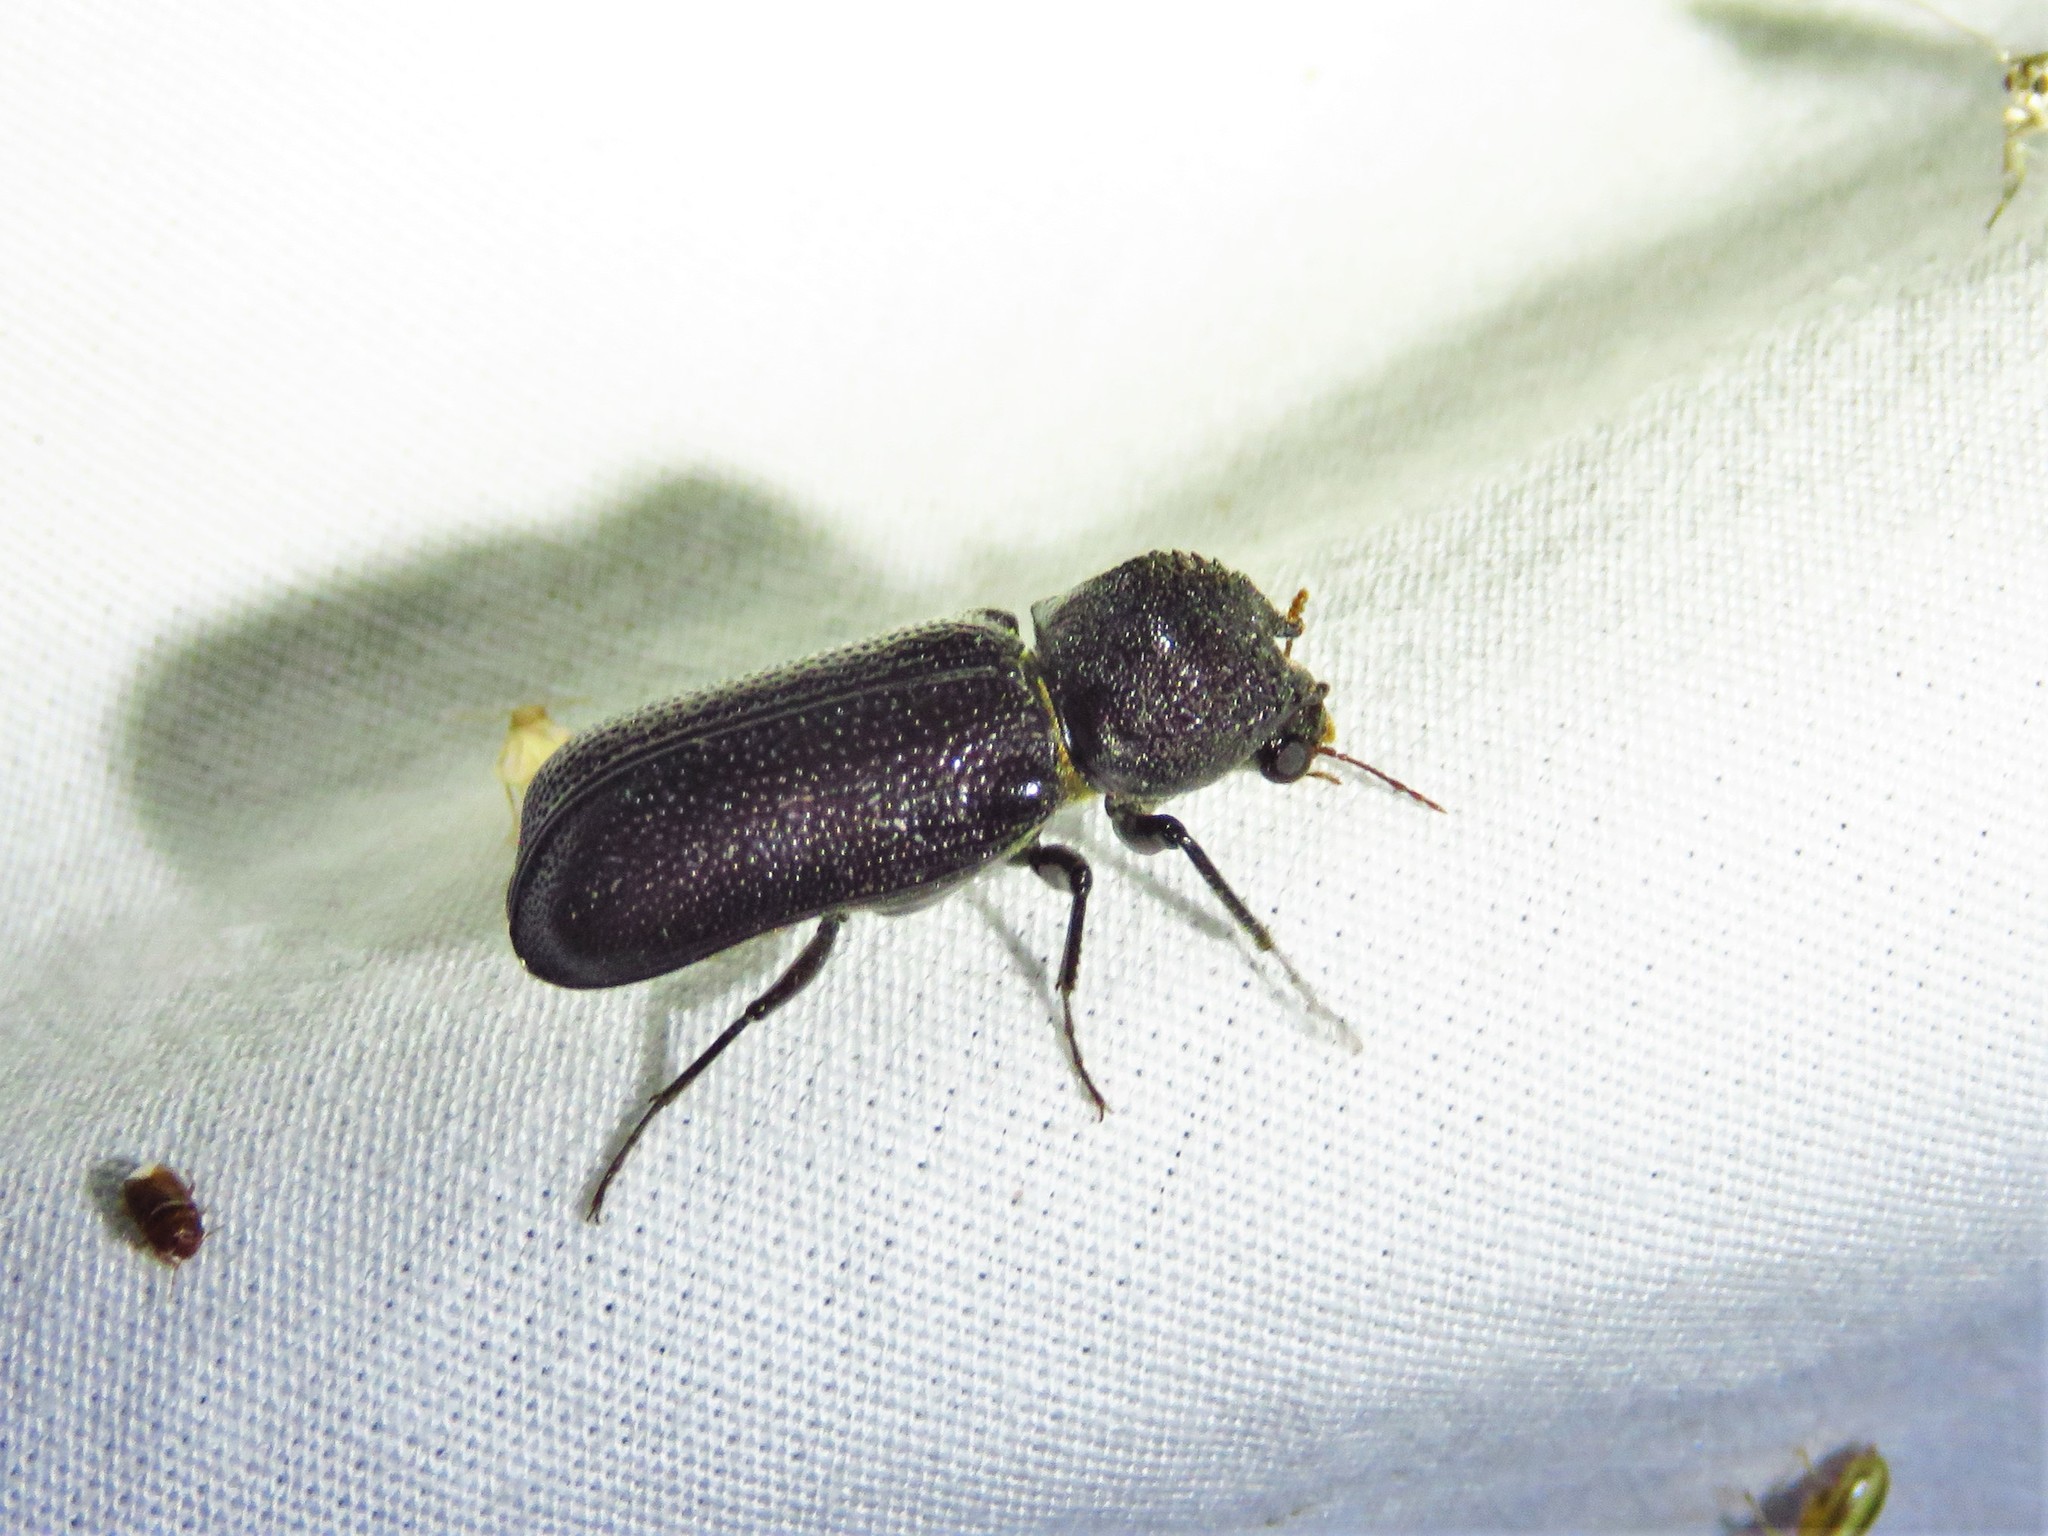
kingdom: Animalia
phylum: Arthropoda
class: Insecta
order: Coleoptera
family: Bostrichidae
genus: Apatides
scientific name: Apatides fortis
